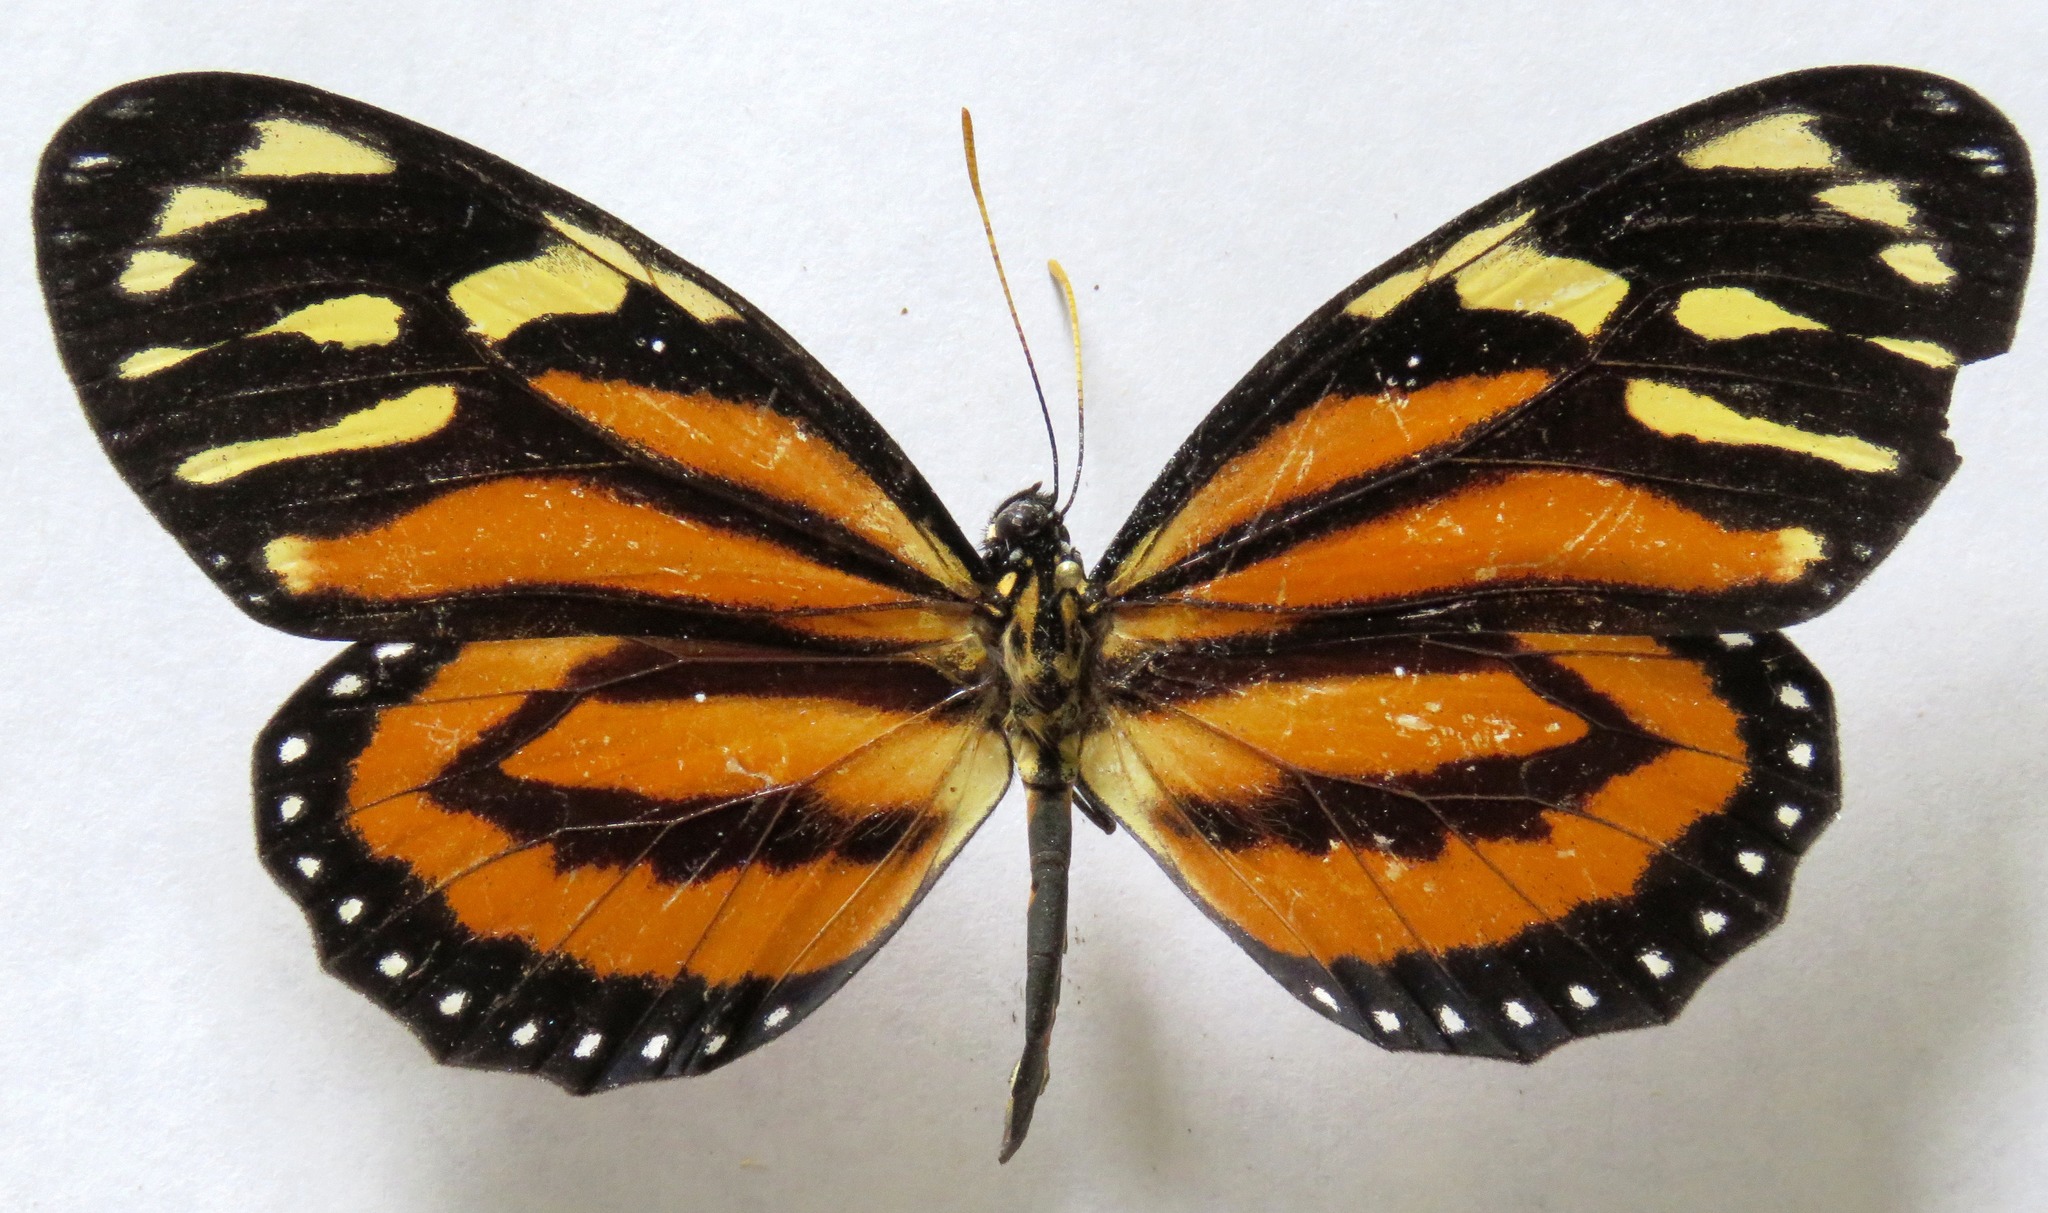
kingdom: Animalia
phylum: Arthropoda
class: Insecta
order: Lepidoptera
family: Nymphalidae
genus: Lycorea
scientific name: Lycorea cleobaea
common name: Tiger mimic-queen
